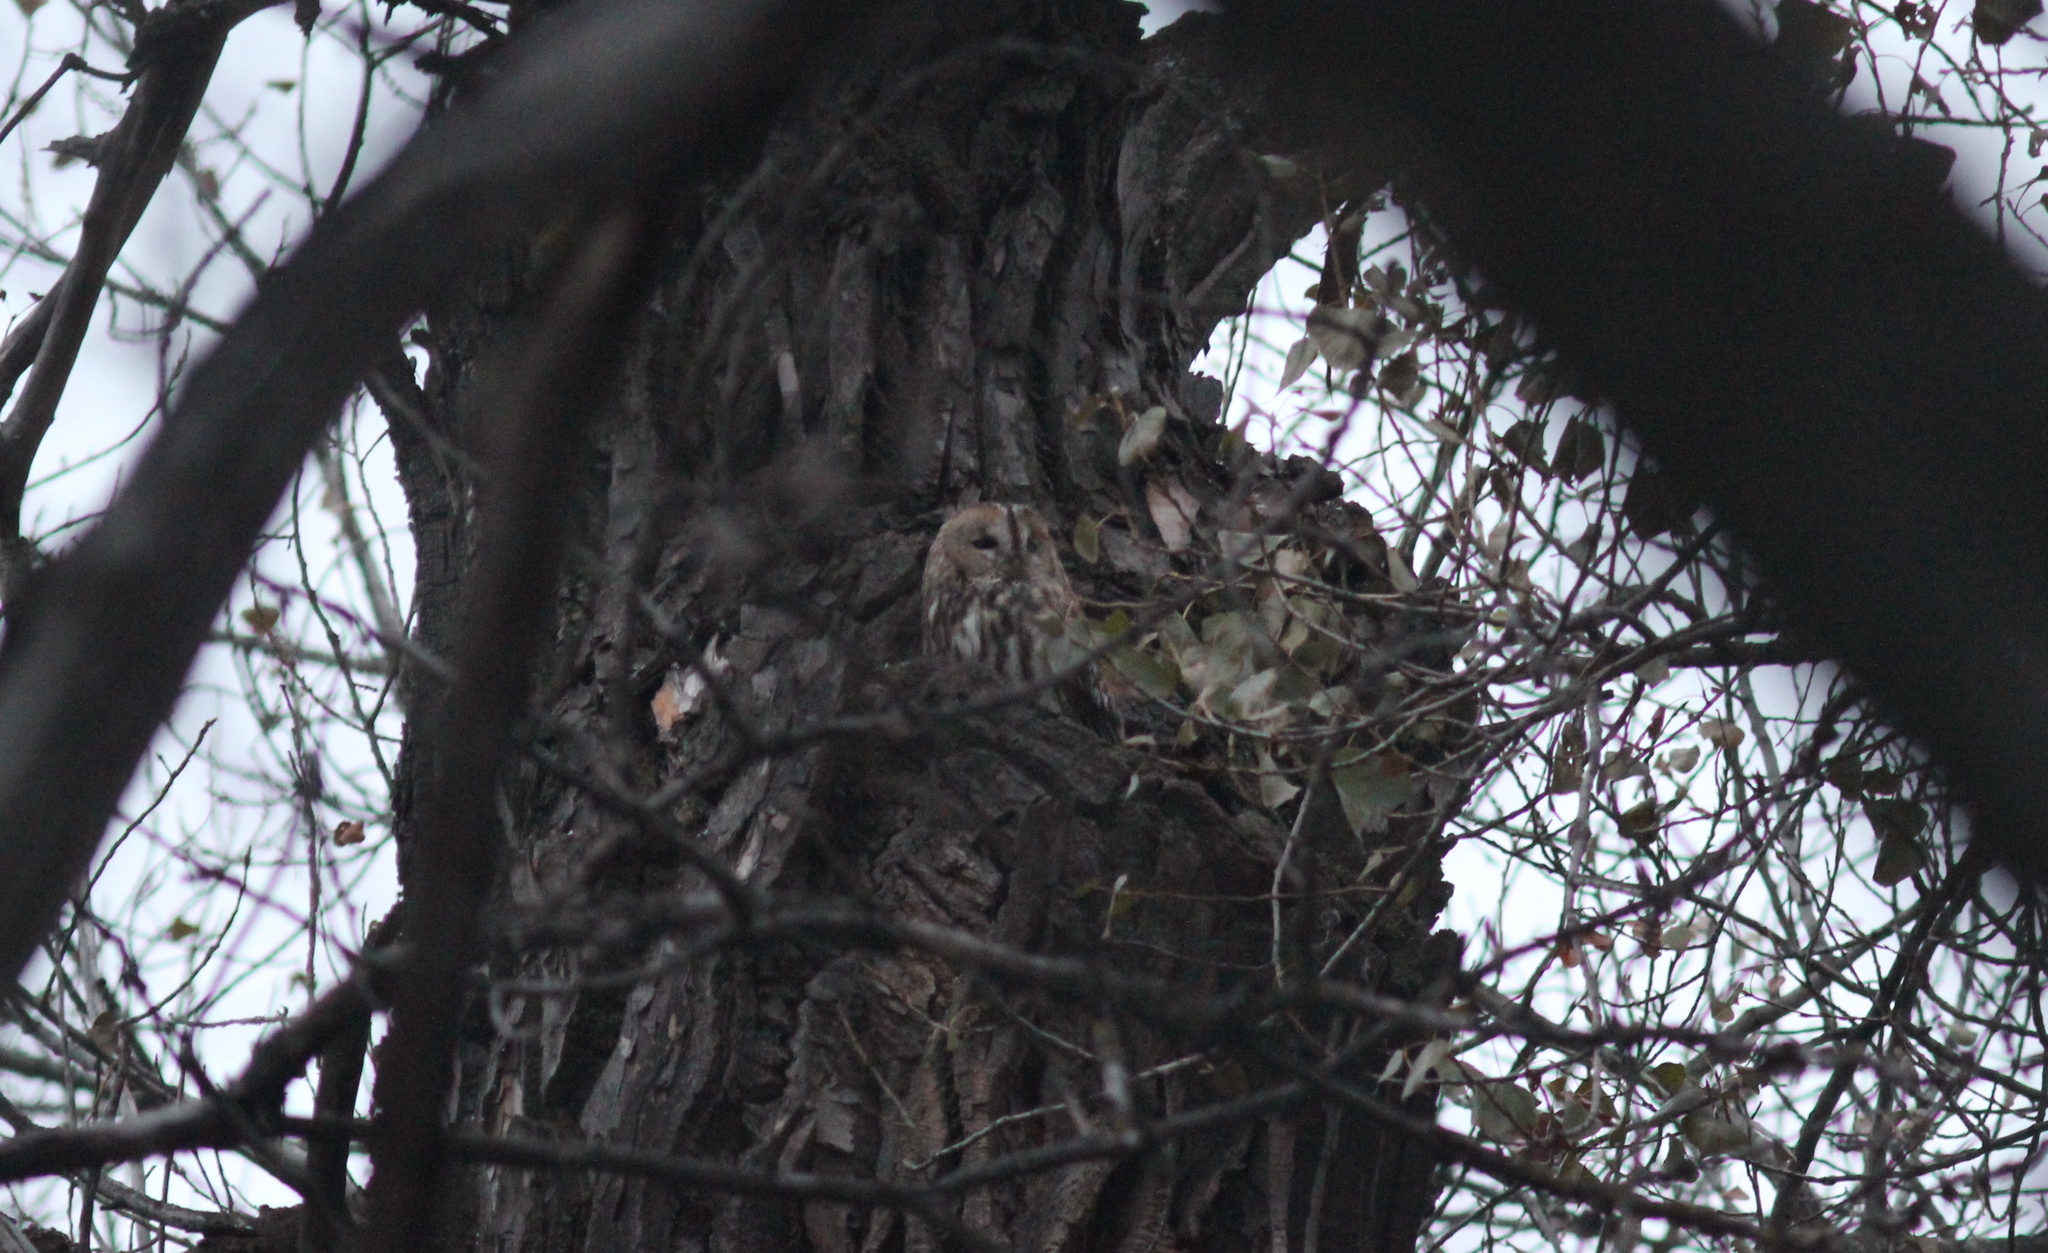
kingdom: Animalia
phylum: Chordata
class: Aves
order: Strigiformes
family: Strigidae
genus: Strix
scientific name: Strix aluco
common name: Tawny owl
